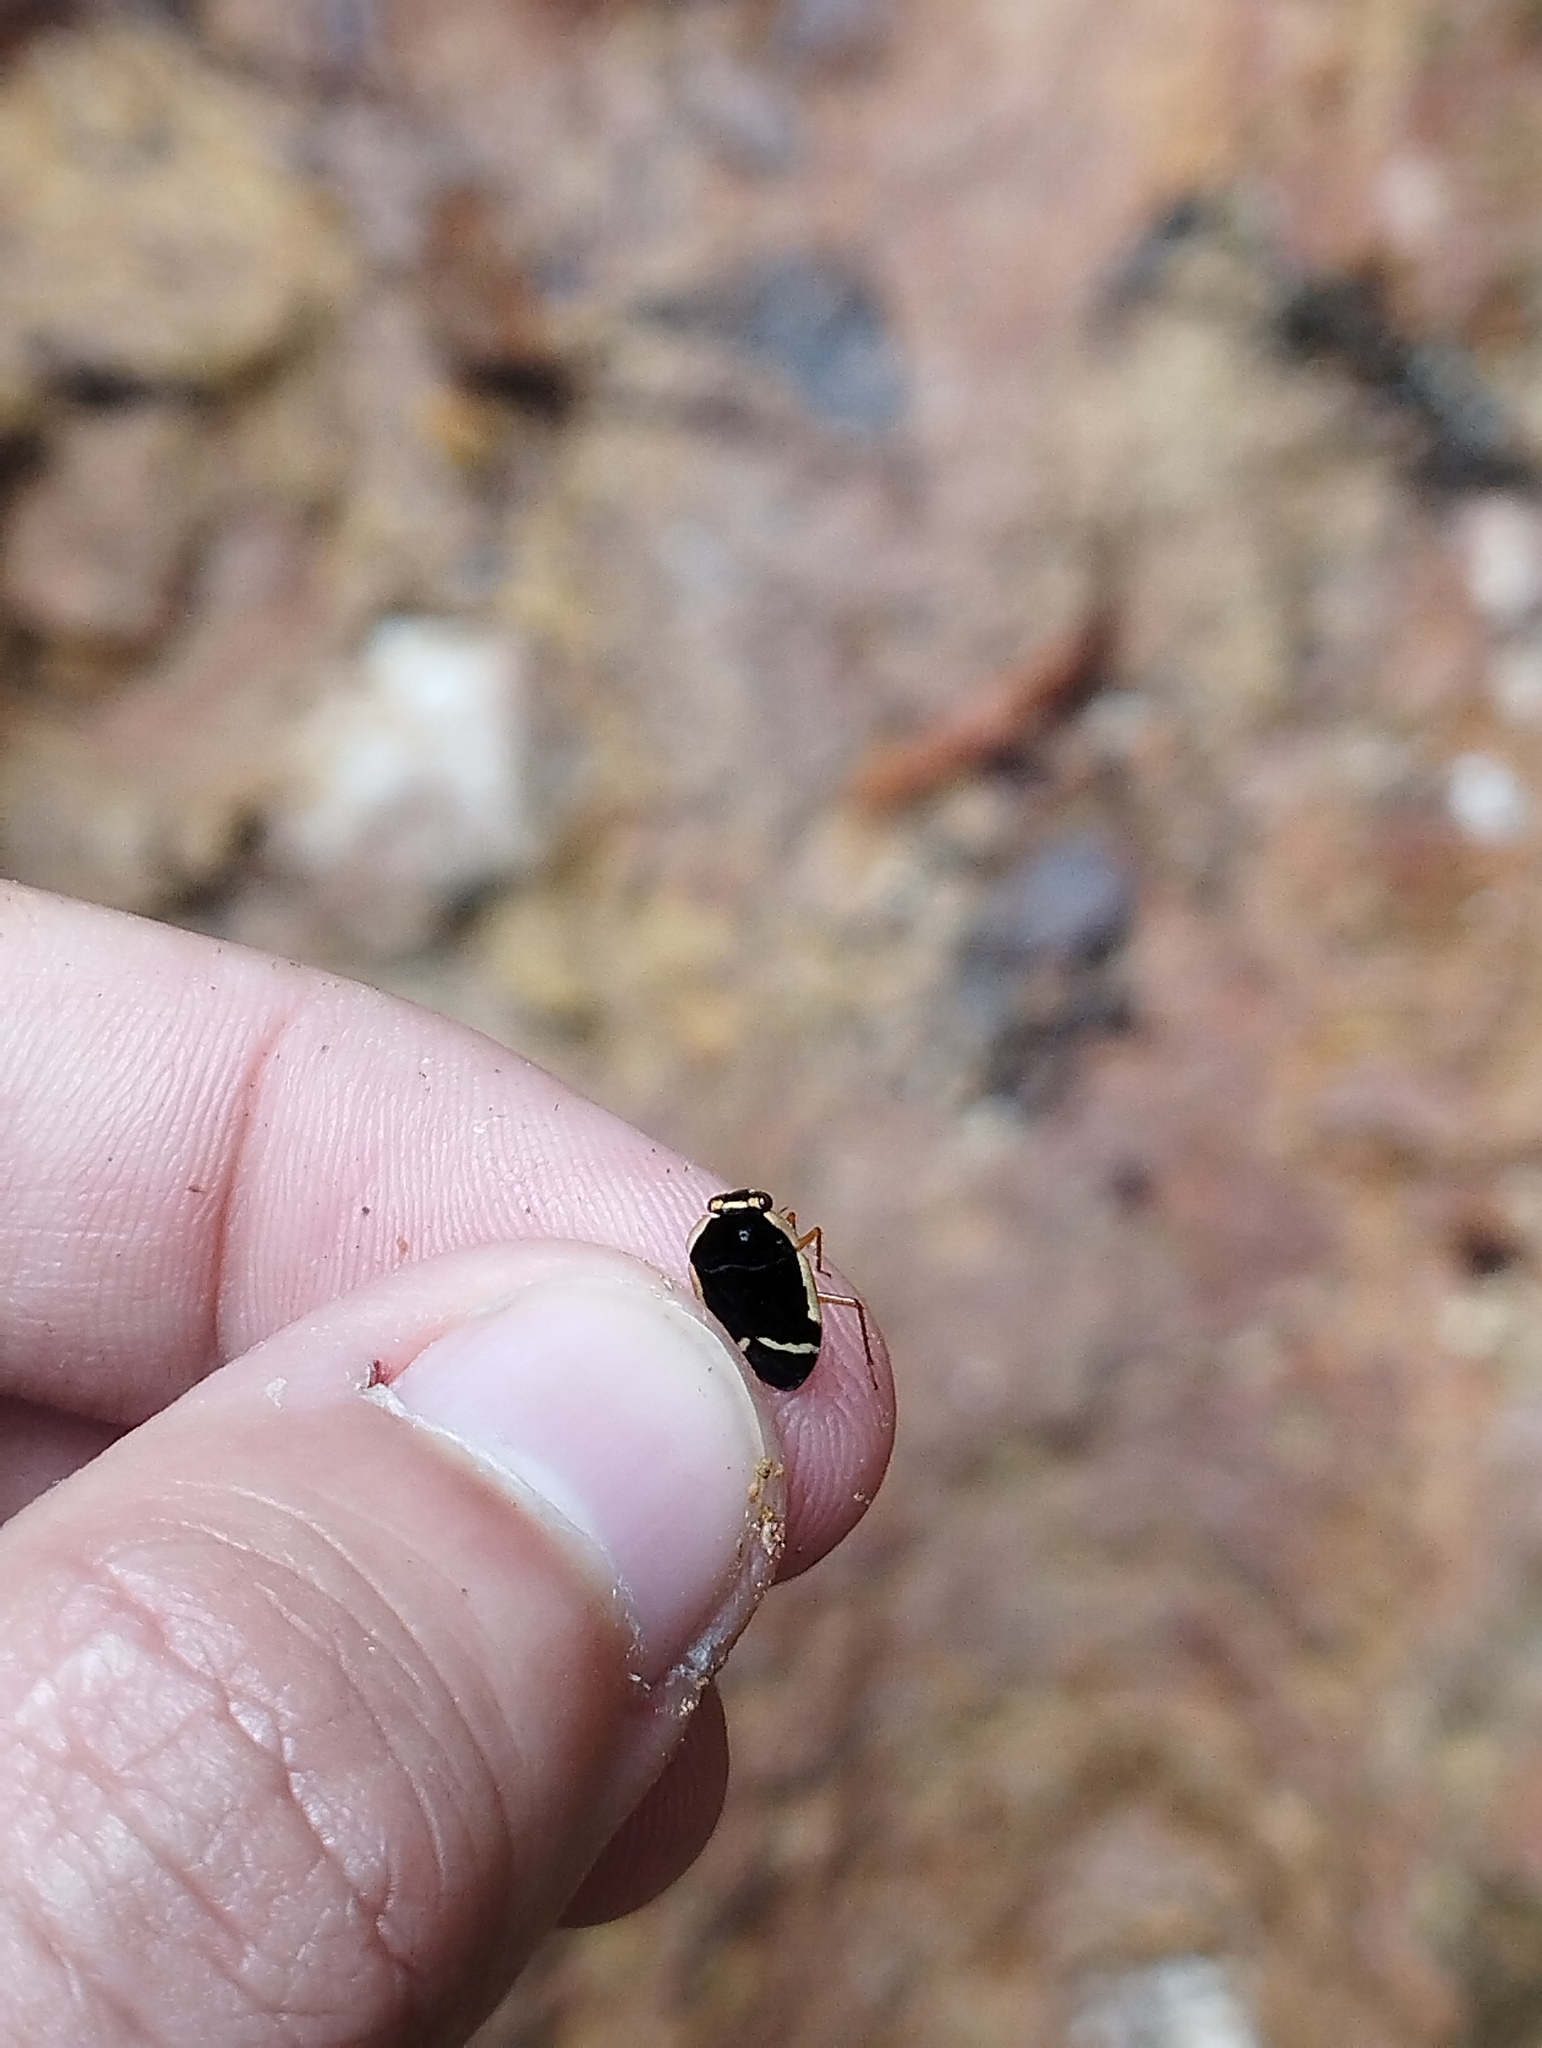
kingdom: Animalia
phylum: Arthropoda
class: Insecta
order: Hemiptera
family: Ochteridae
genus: Ocyochterus
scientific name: Ocyochterus victor
